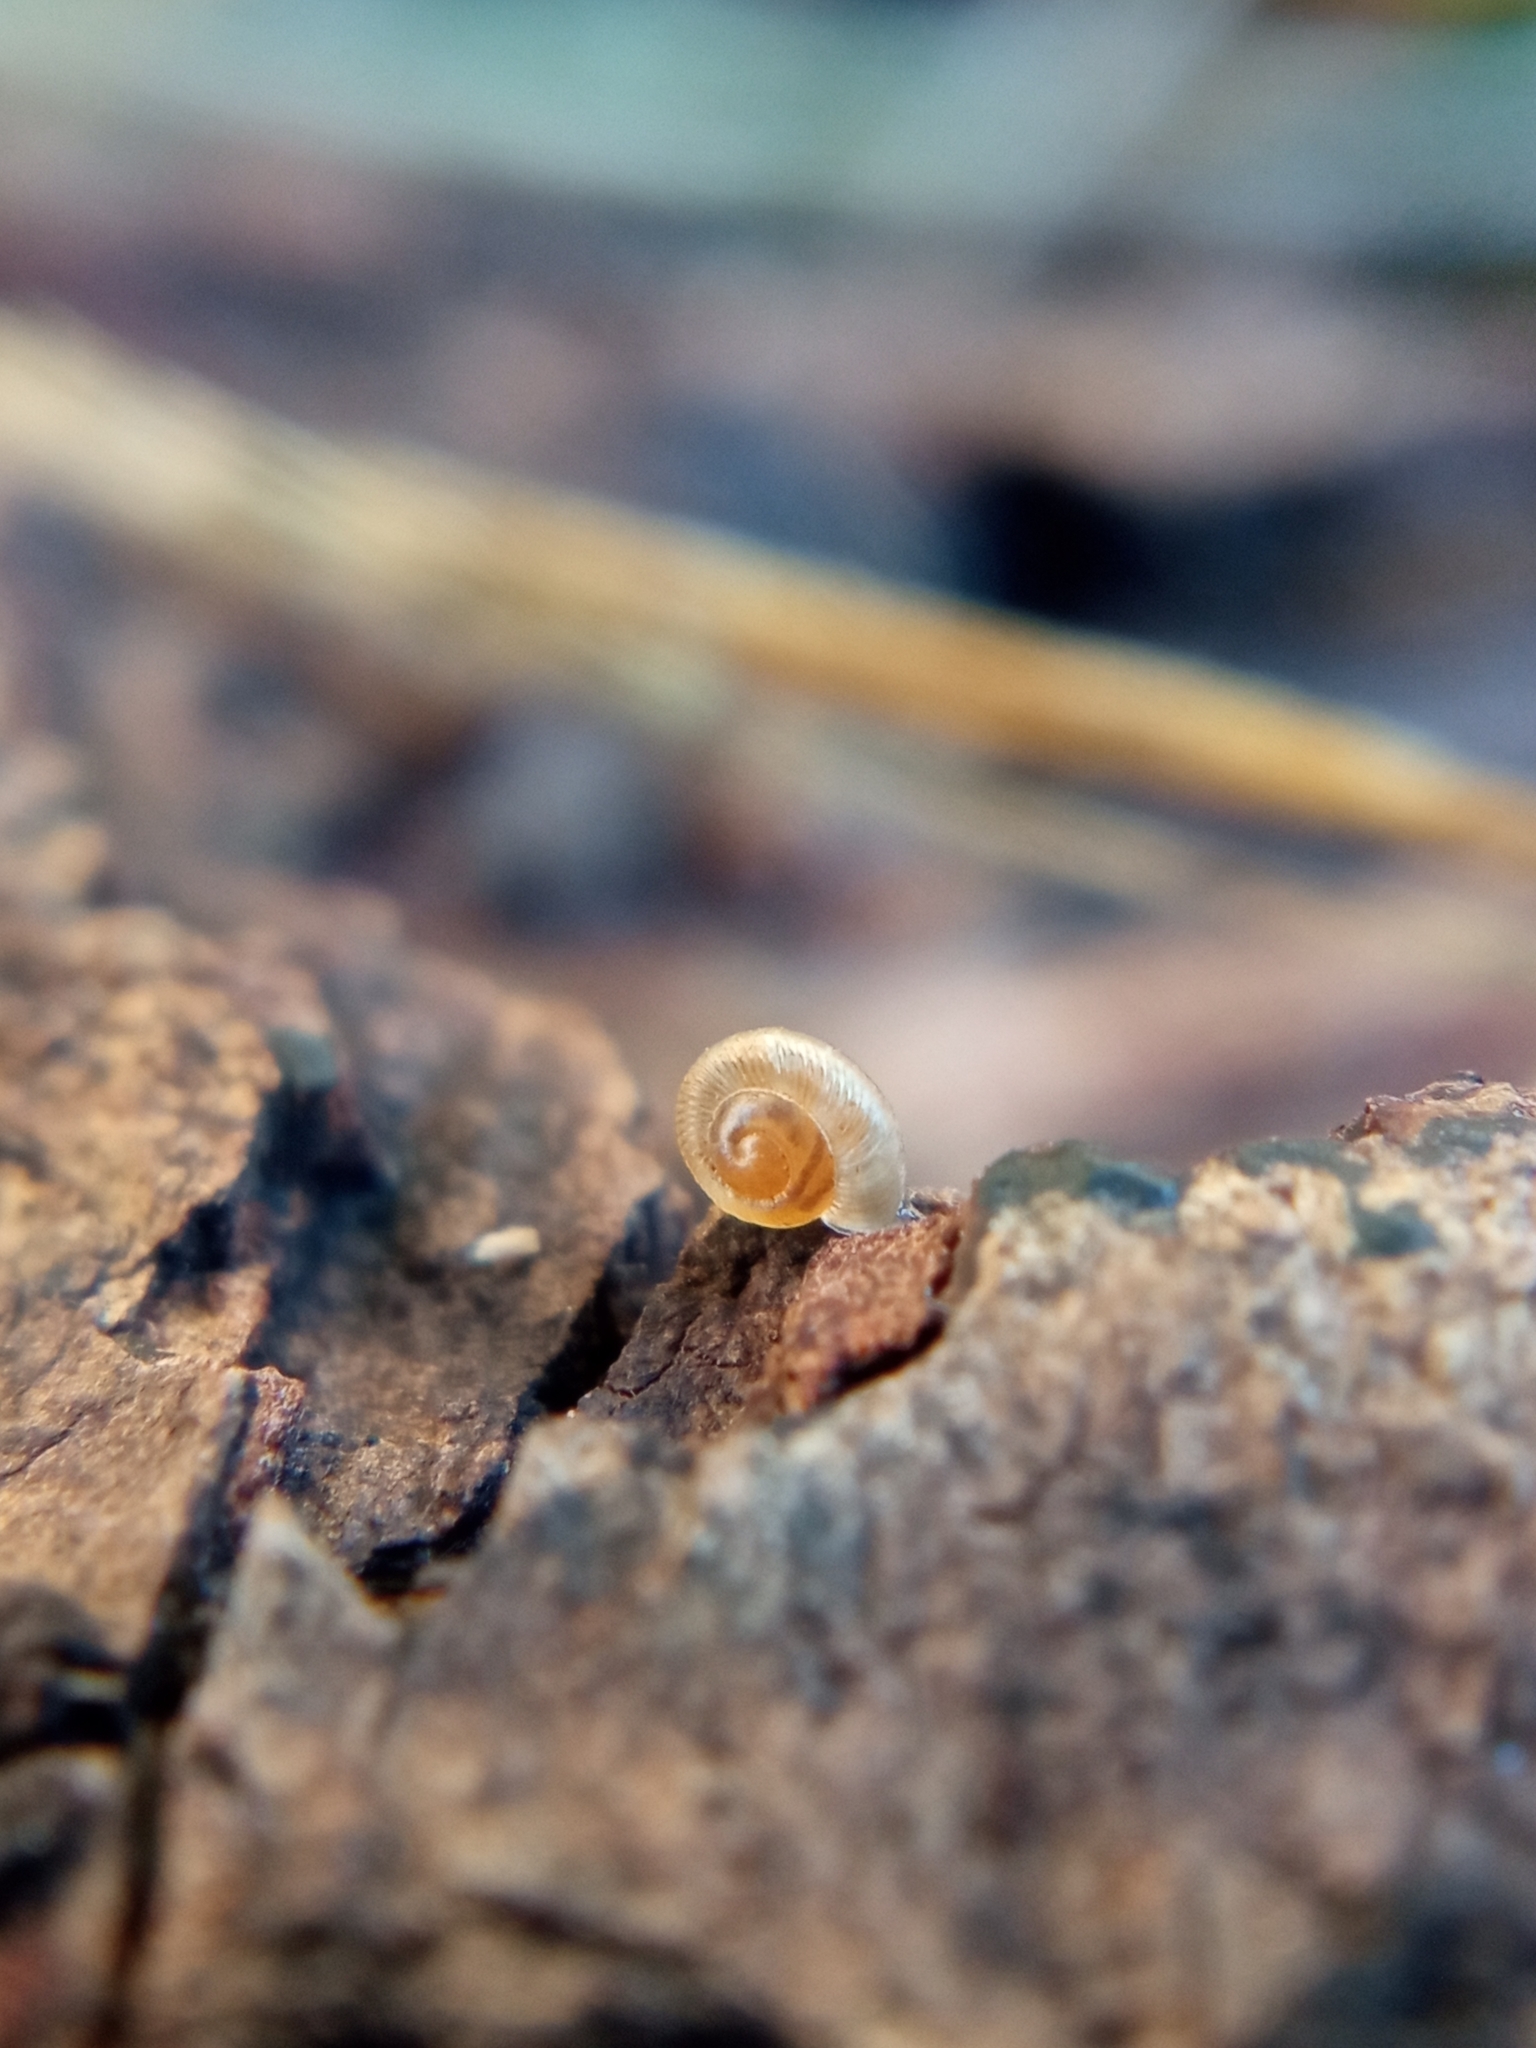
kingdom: Animalia
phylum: Mollusca
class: Gastropoda
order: Stylommatophora
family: Discidae
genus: Discus
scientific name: Discus rotundatus
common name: Rounded snail
